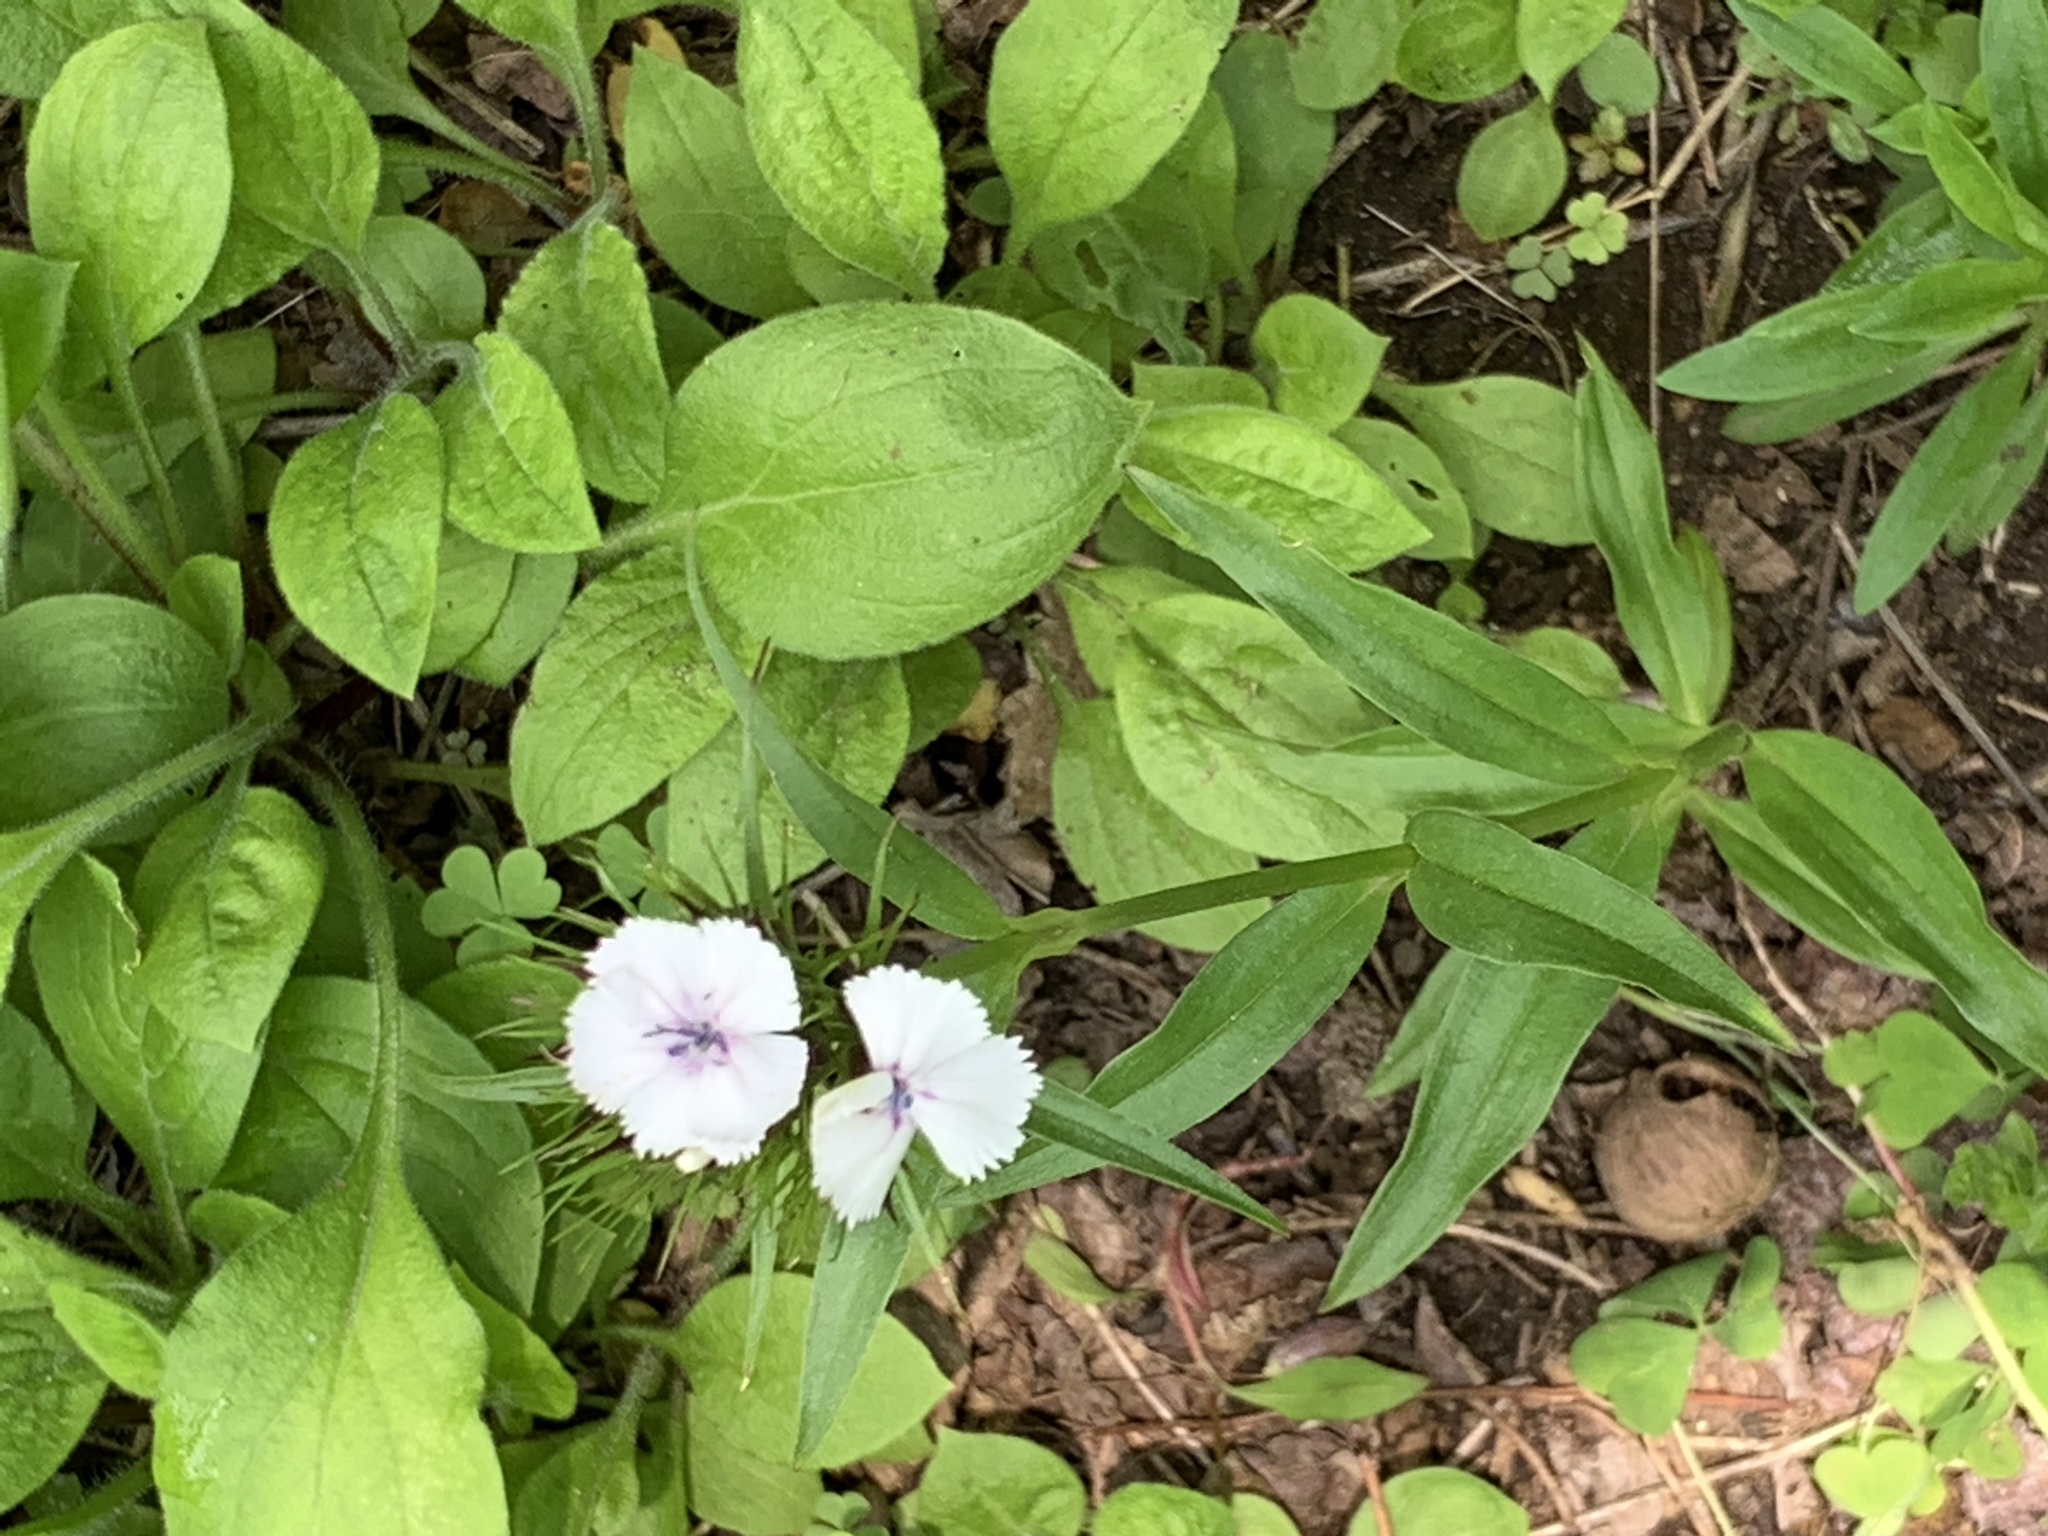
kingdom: Plantae
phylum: Tracheophyta
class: Magnoliopsida
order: Caryophyllales
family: Caryophyllaceae
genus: Dianthus
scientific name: Dianthus barbatus
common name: Sweet-william
